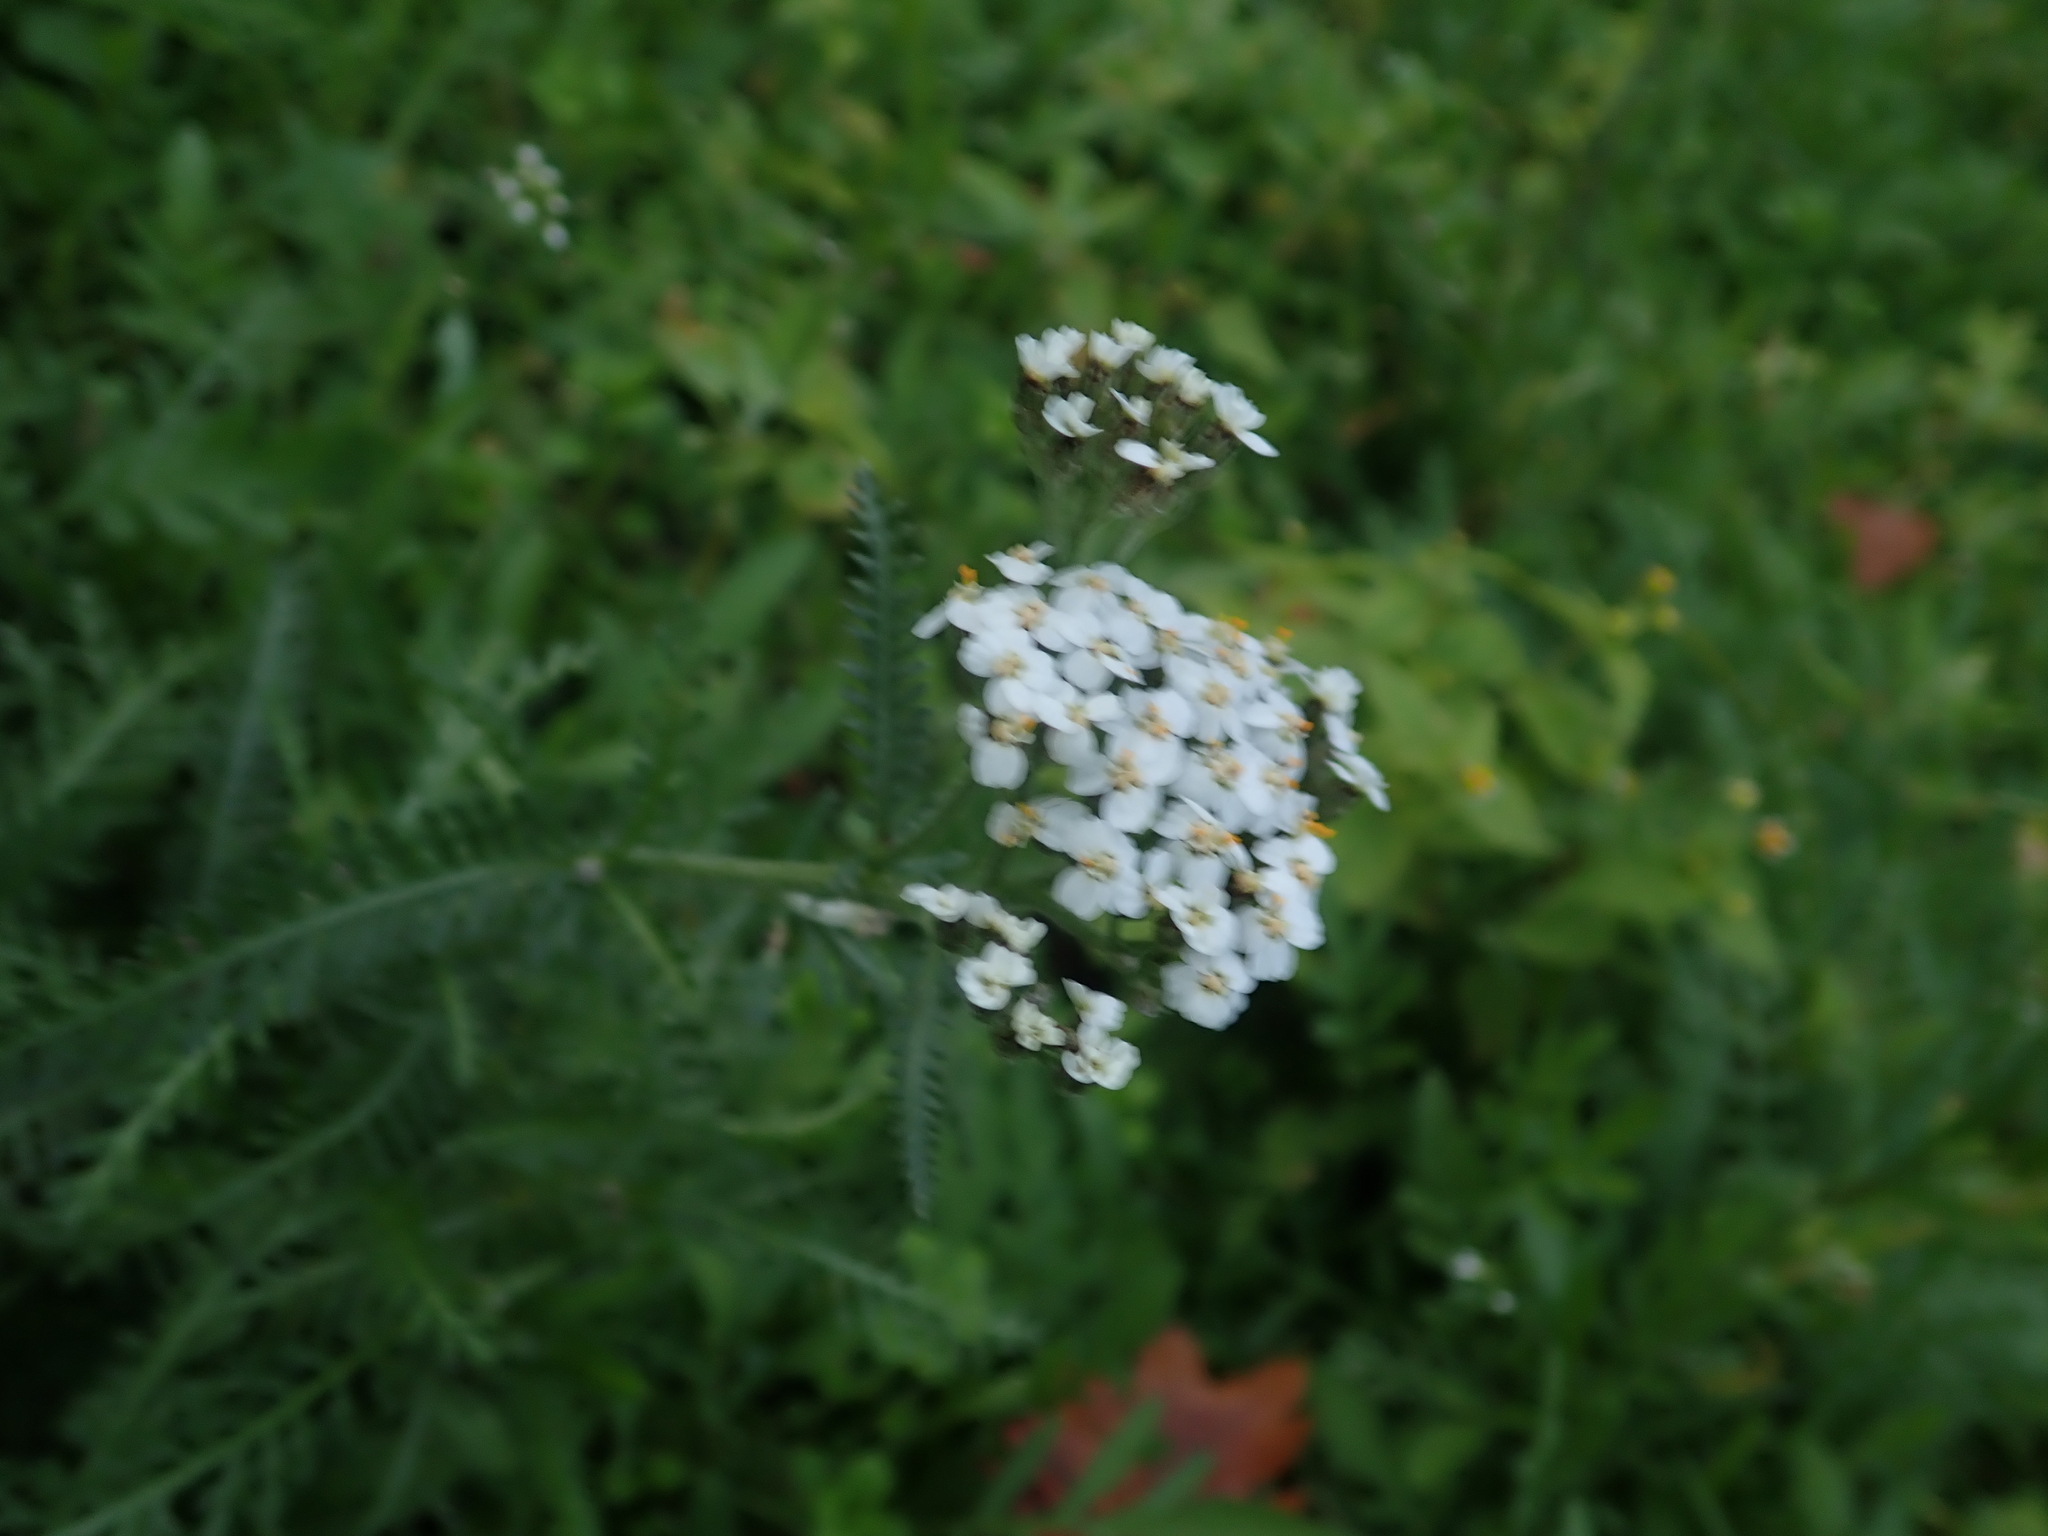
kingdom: Plantae
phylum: Tracheophyta
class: Magnoliopsida
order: Asterales
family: Asteraceae
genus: Achillea
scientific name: Achillea millefolium
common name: Yarrow
